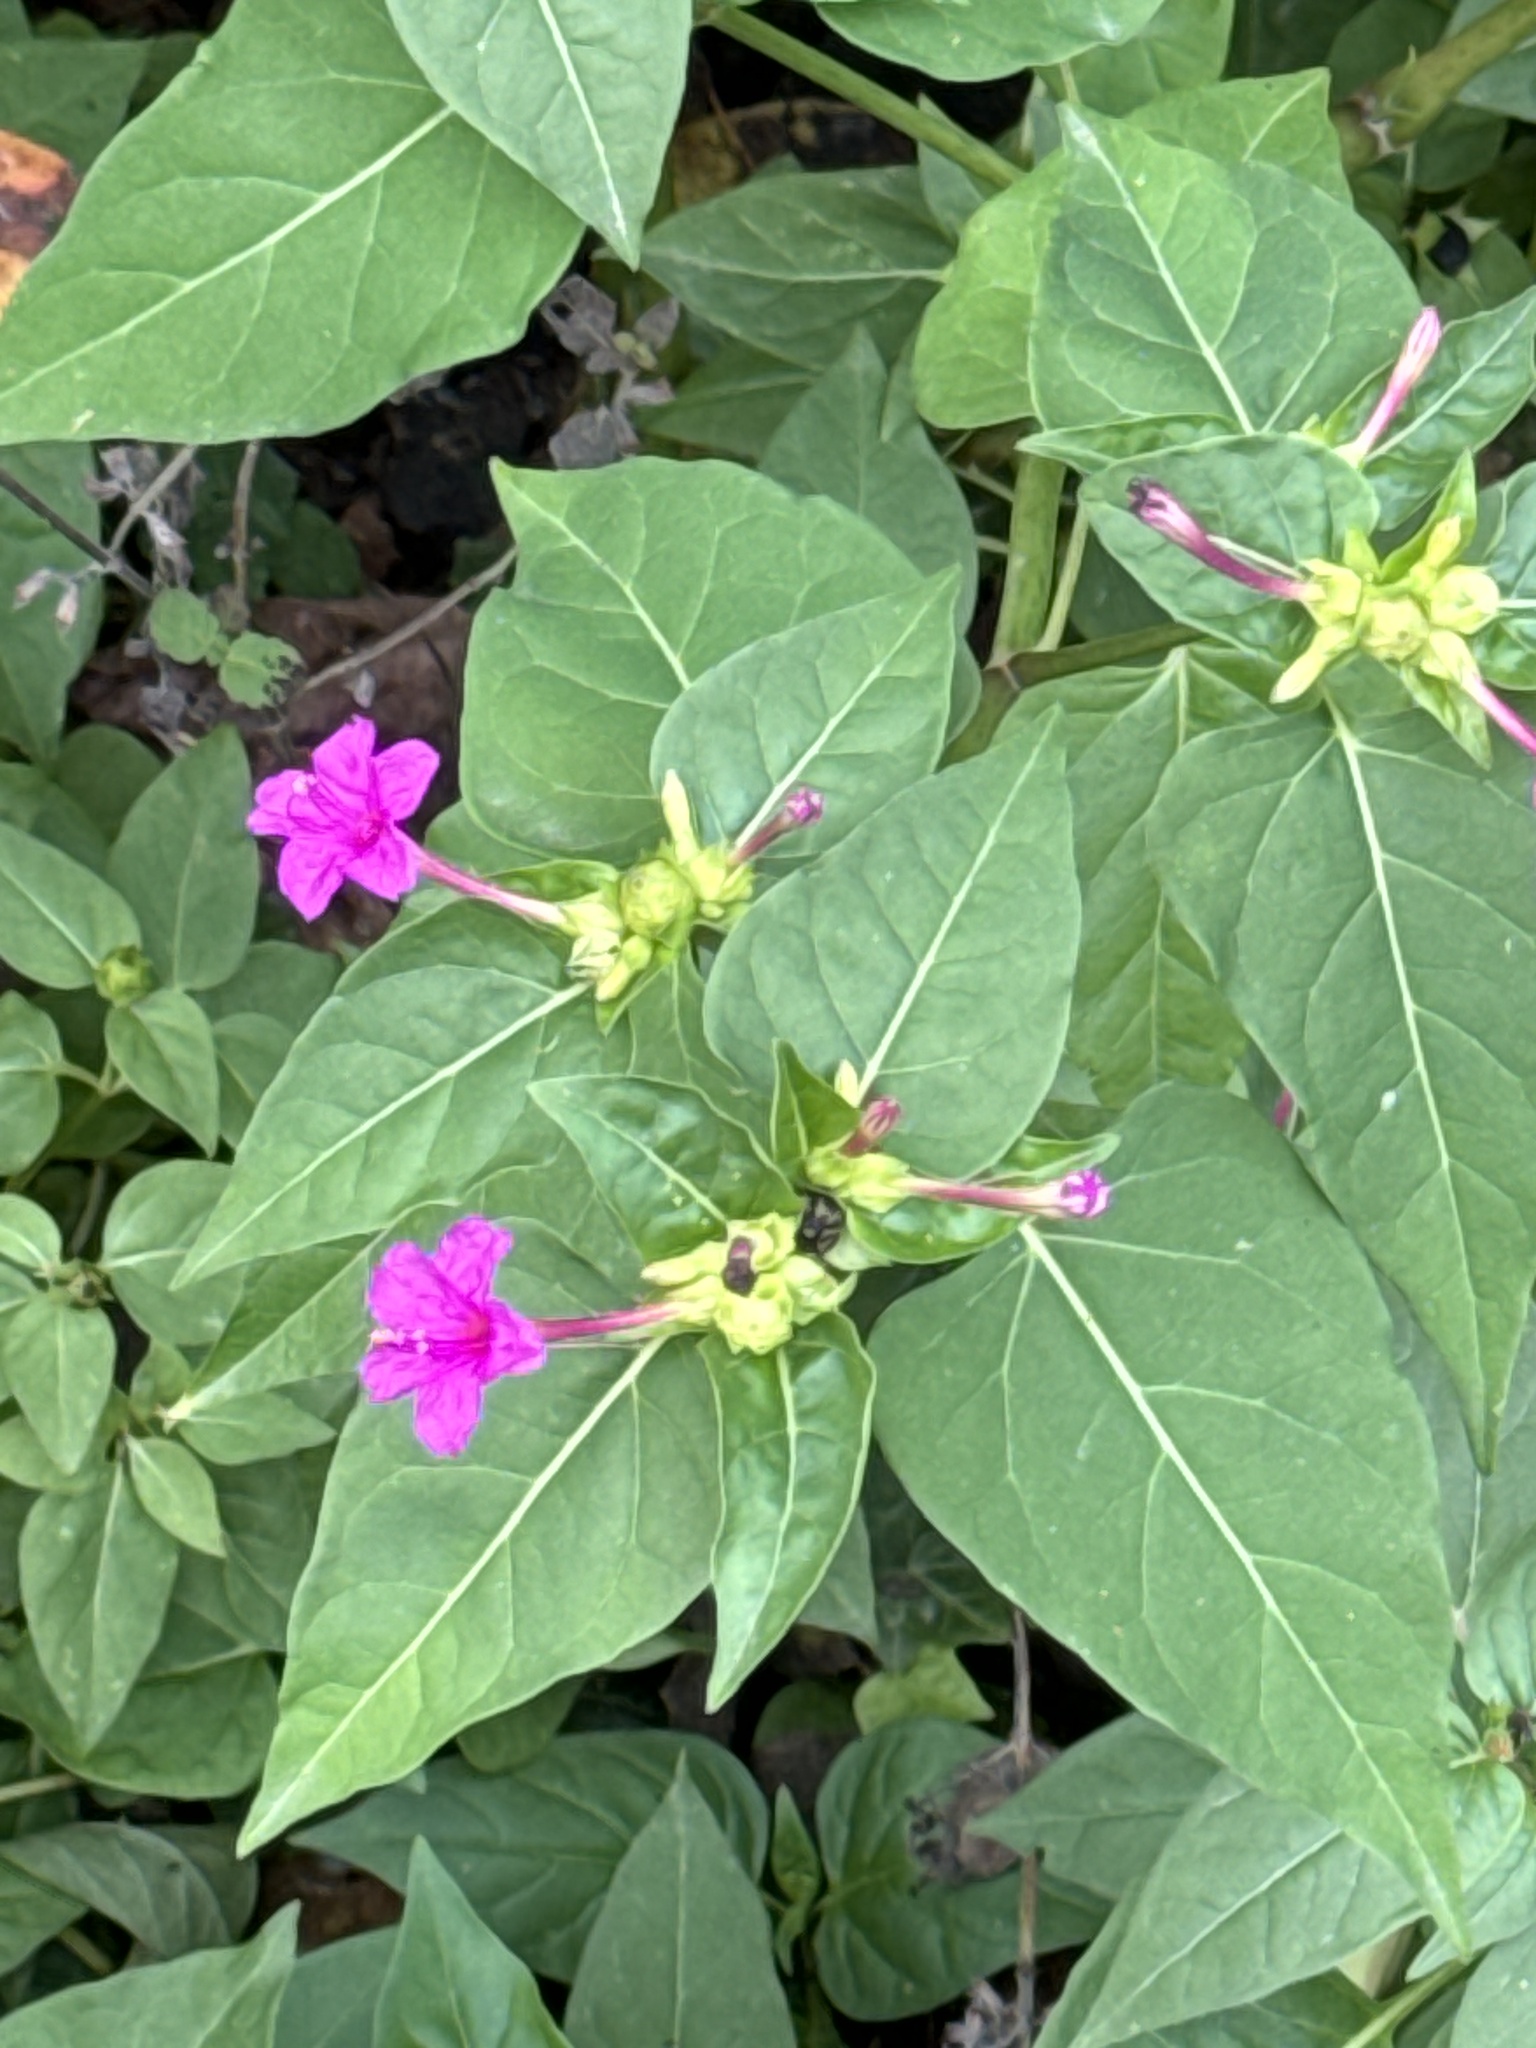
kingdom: Plantae
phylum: Tracheophyta
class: Magnoliopsida
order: Caryophyllales
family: Nyctaginaceae
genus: Mirabilis
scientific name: Mirabilis jalapa
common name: Marvel-of-peru
